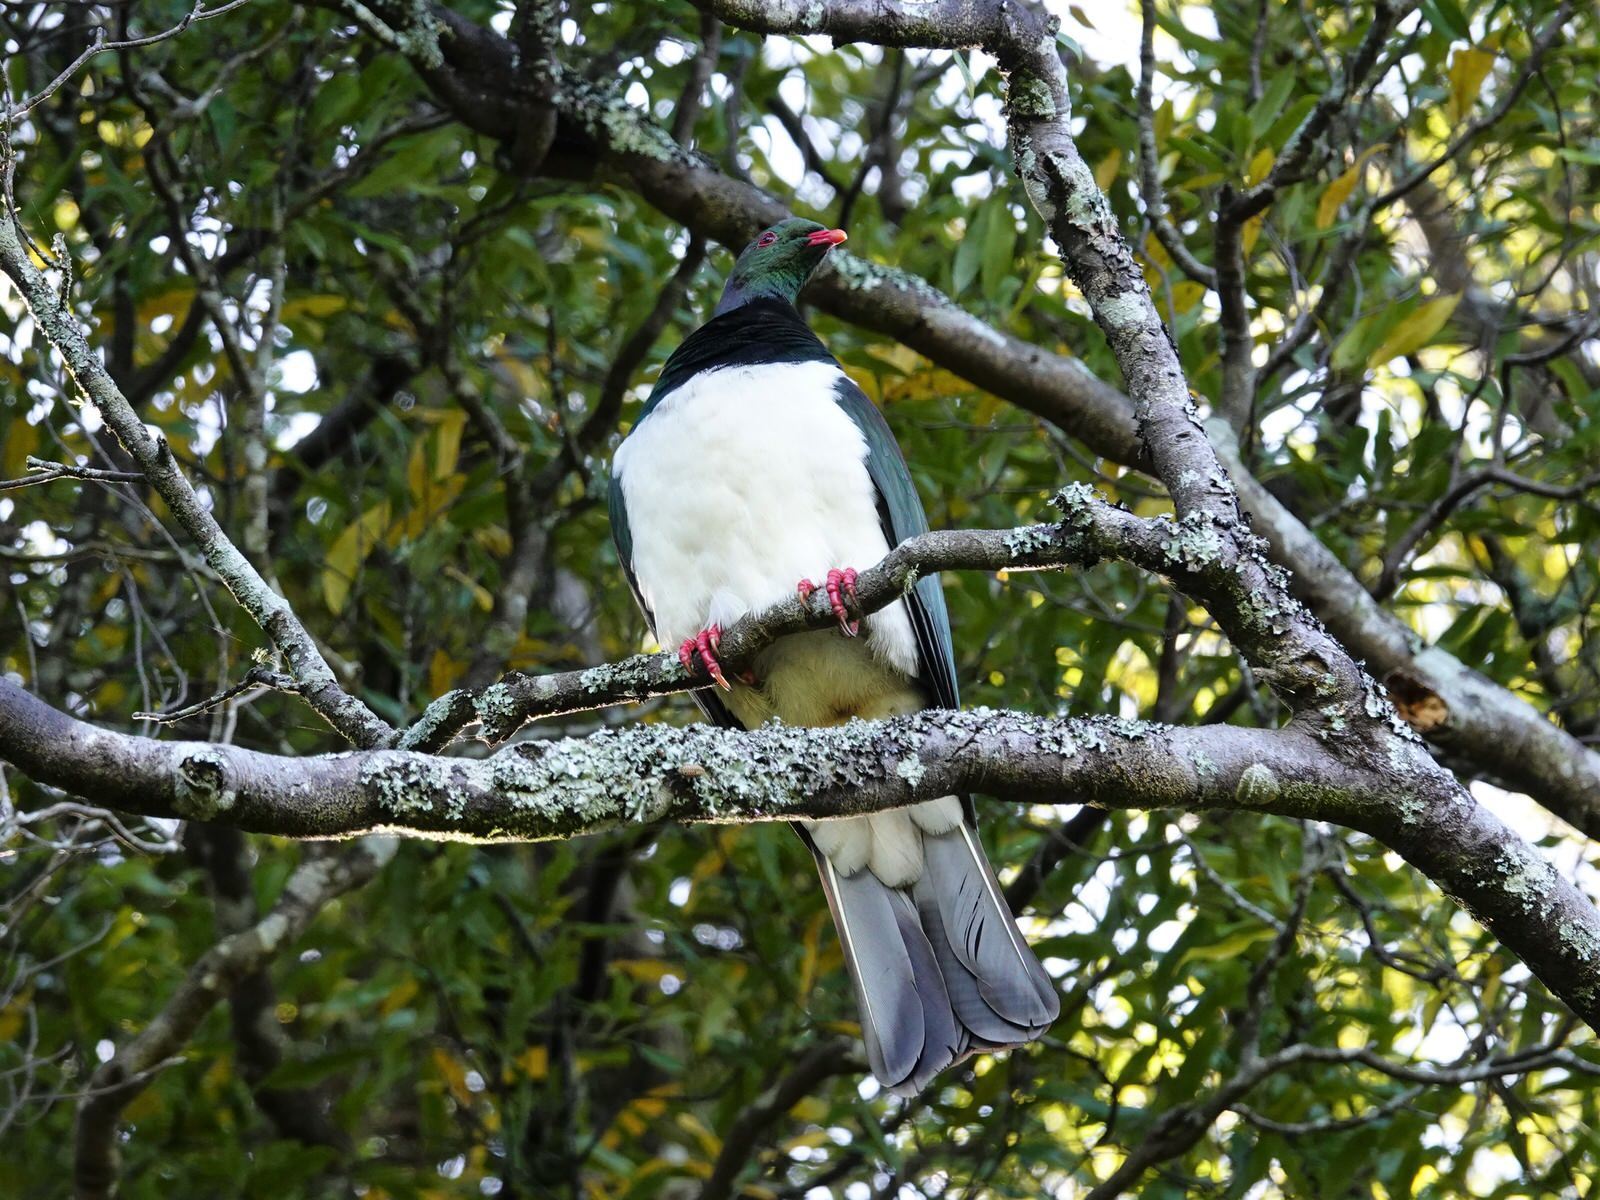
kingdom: Animalia
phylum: Chordata
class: Aves
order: Columbiformes
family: Columbidae
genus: Hemiphaga
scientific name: Hemiphaga novaeseelandiae
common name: New zealand pigeon
